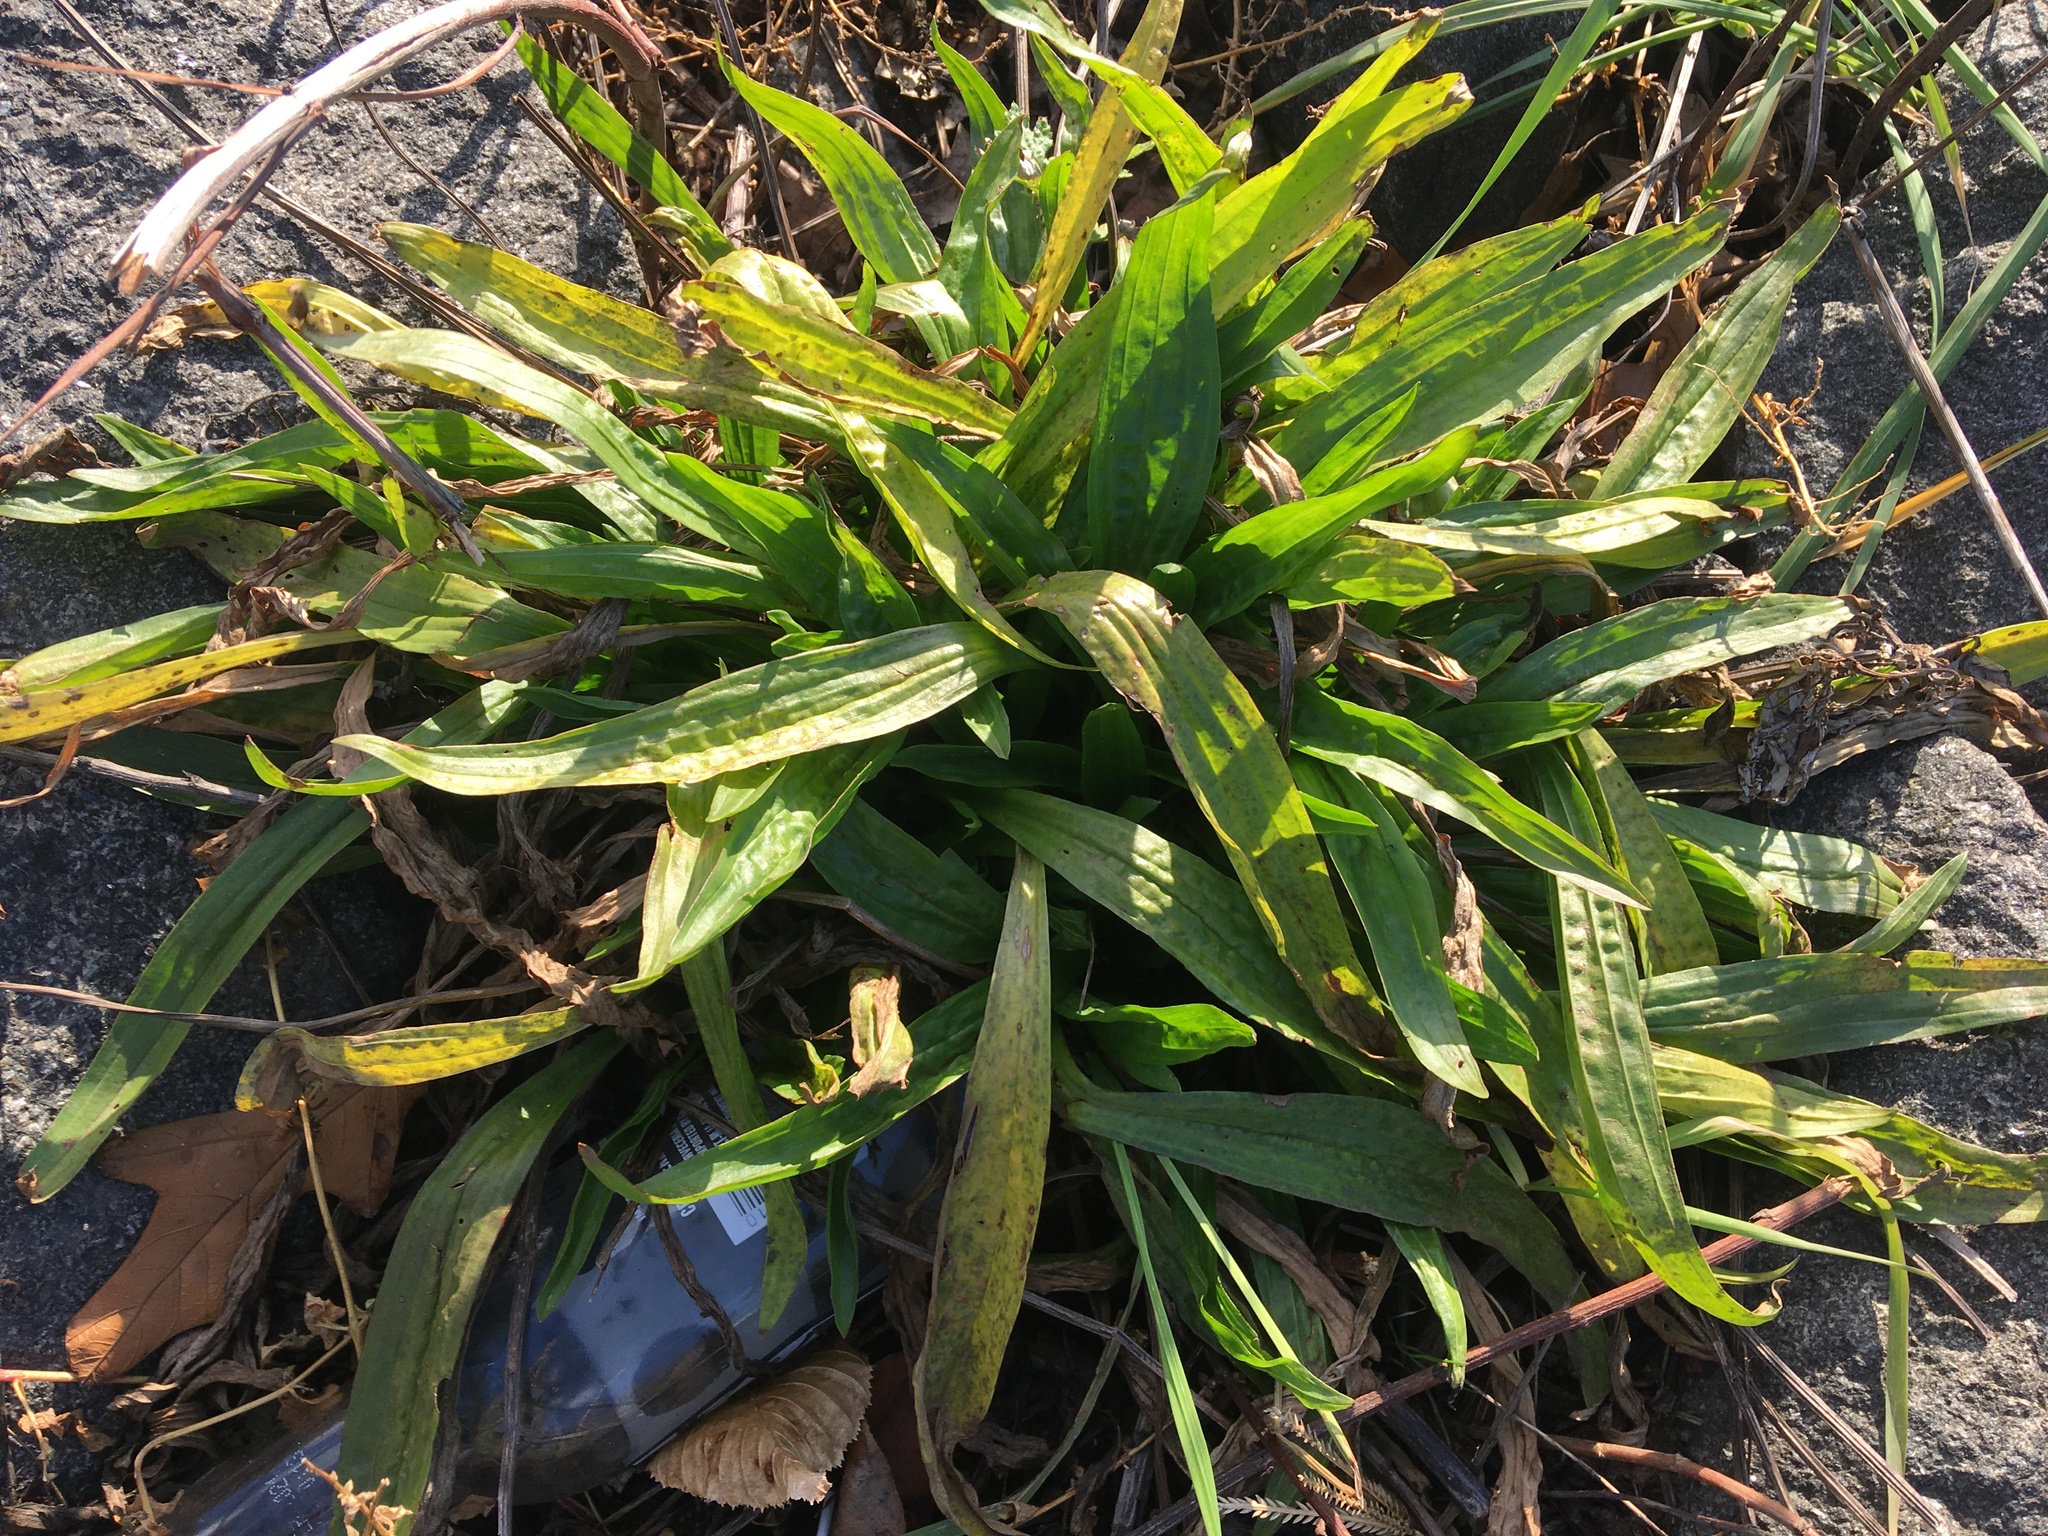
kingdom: Plantae
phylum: Tracheophyta
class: Magnoliopsida
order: Lamiales
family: Plantaginaceae
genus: Plantago
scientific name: Plantago lanceolata
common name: Ribwort plantain
